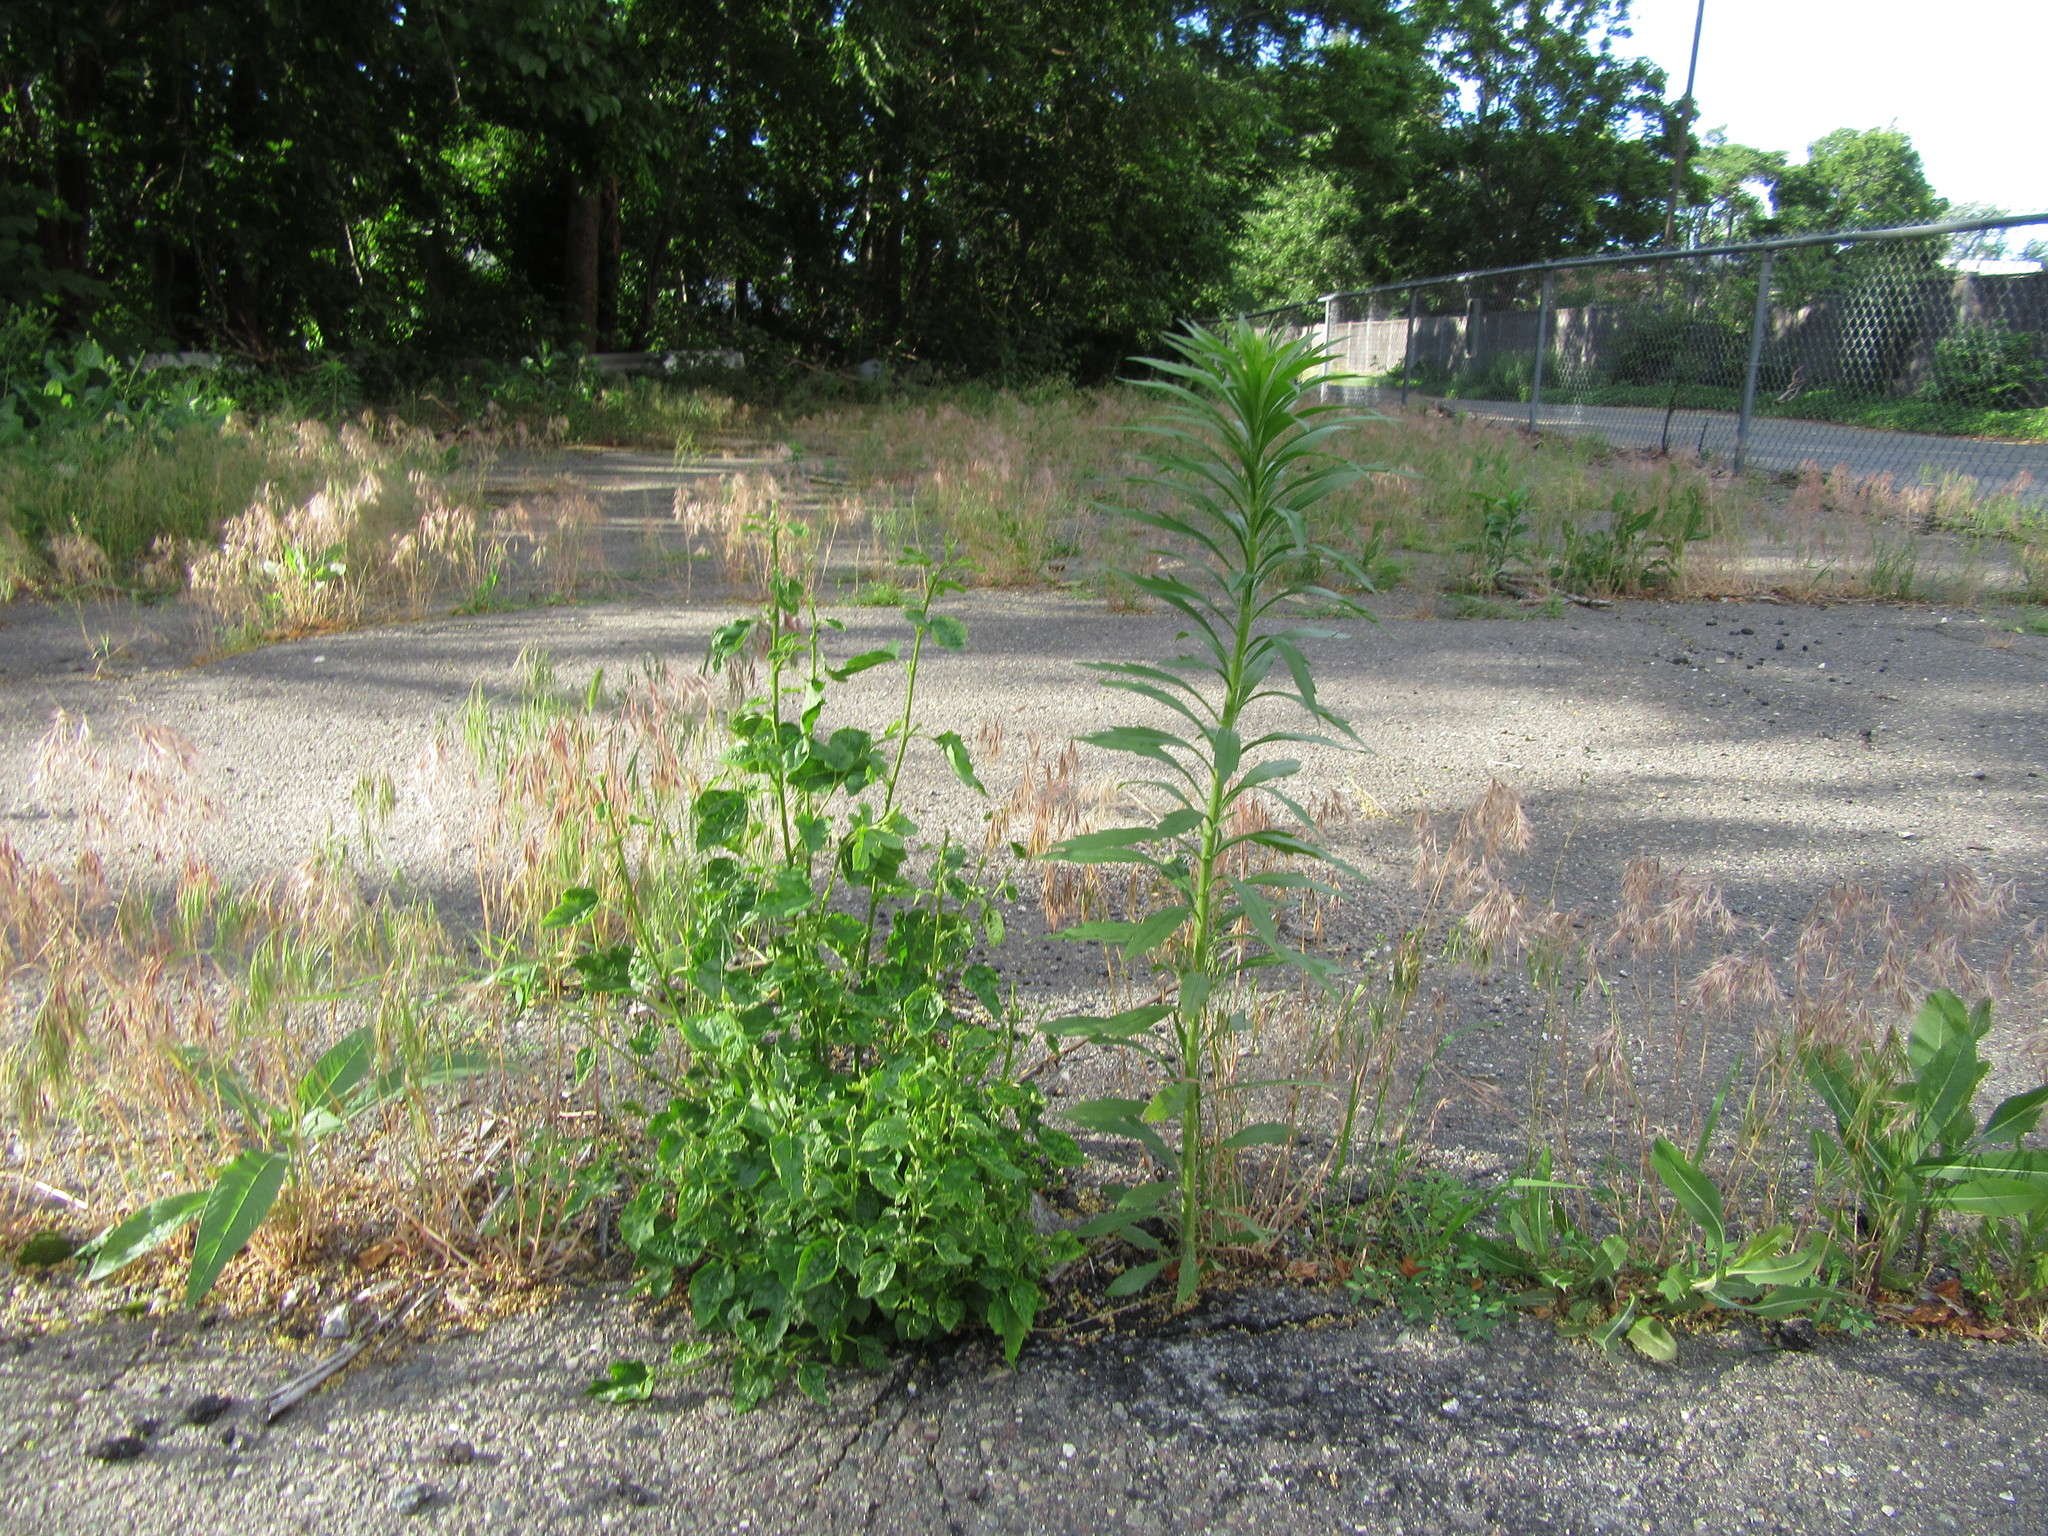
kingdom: Plantae
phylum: Tracheophyta
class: Magnoliopsida
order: Asterales
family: Asteraceae
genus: Erigeron
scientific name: Erigeron canadensis
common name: Canadian fleabane
